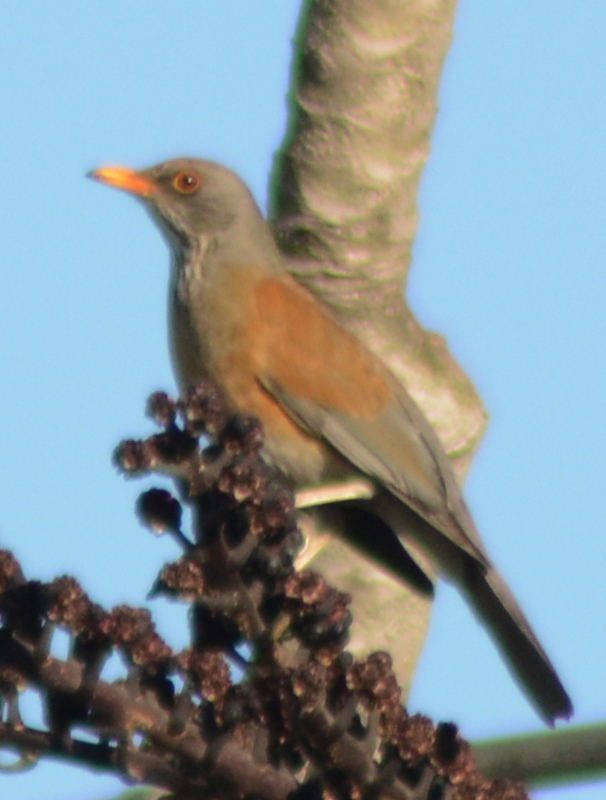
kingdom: Animalia
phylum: Chordata
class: Aves
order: Passeriformes
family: Turdidae
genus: Turdus
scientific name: Turdus rufopalliatus
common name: Rufous-backed robin
